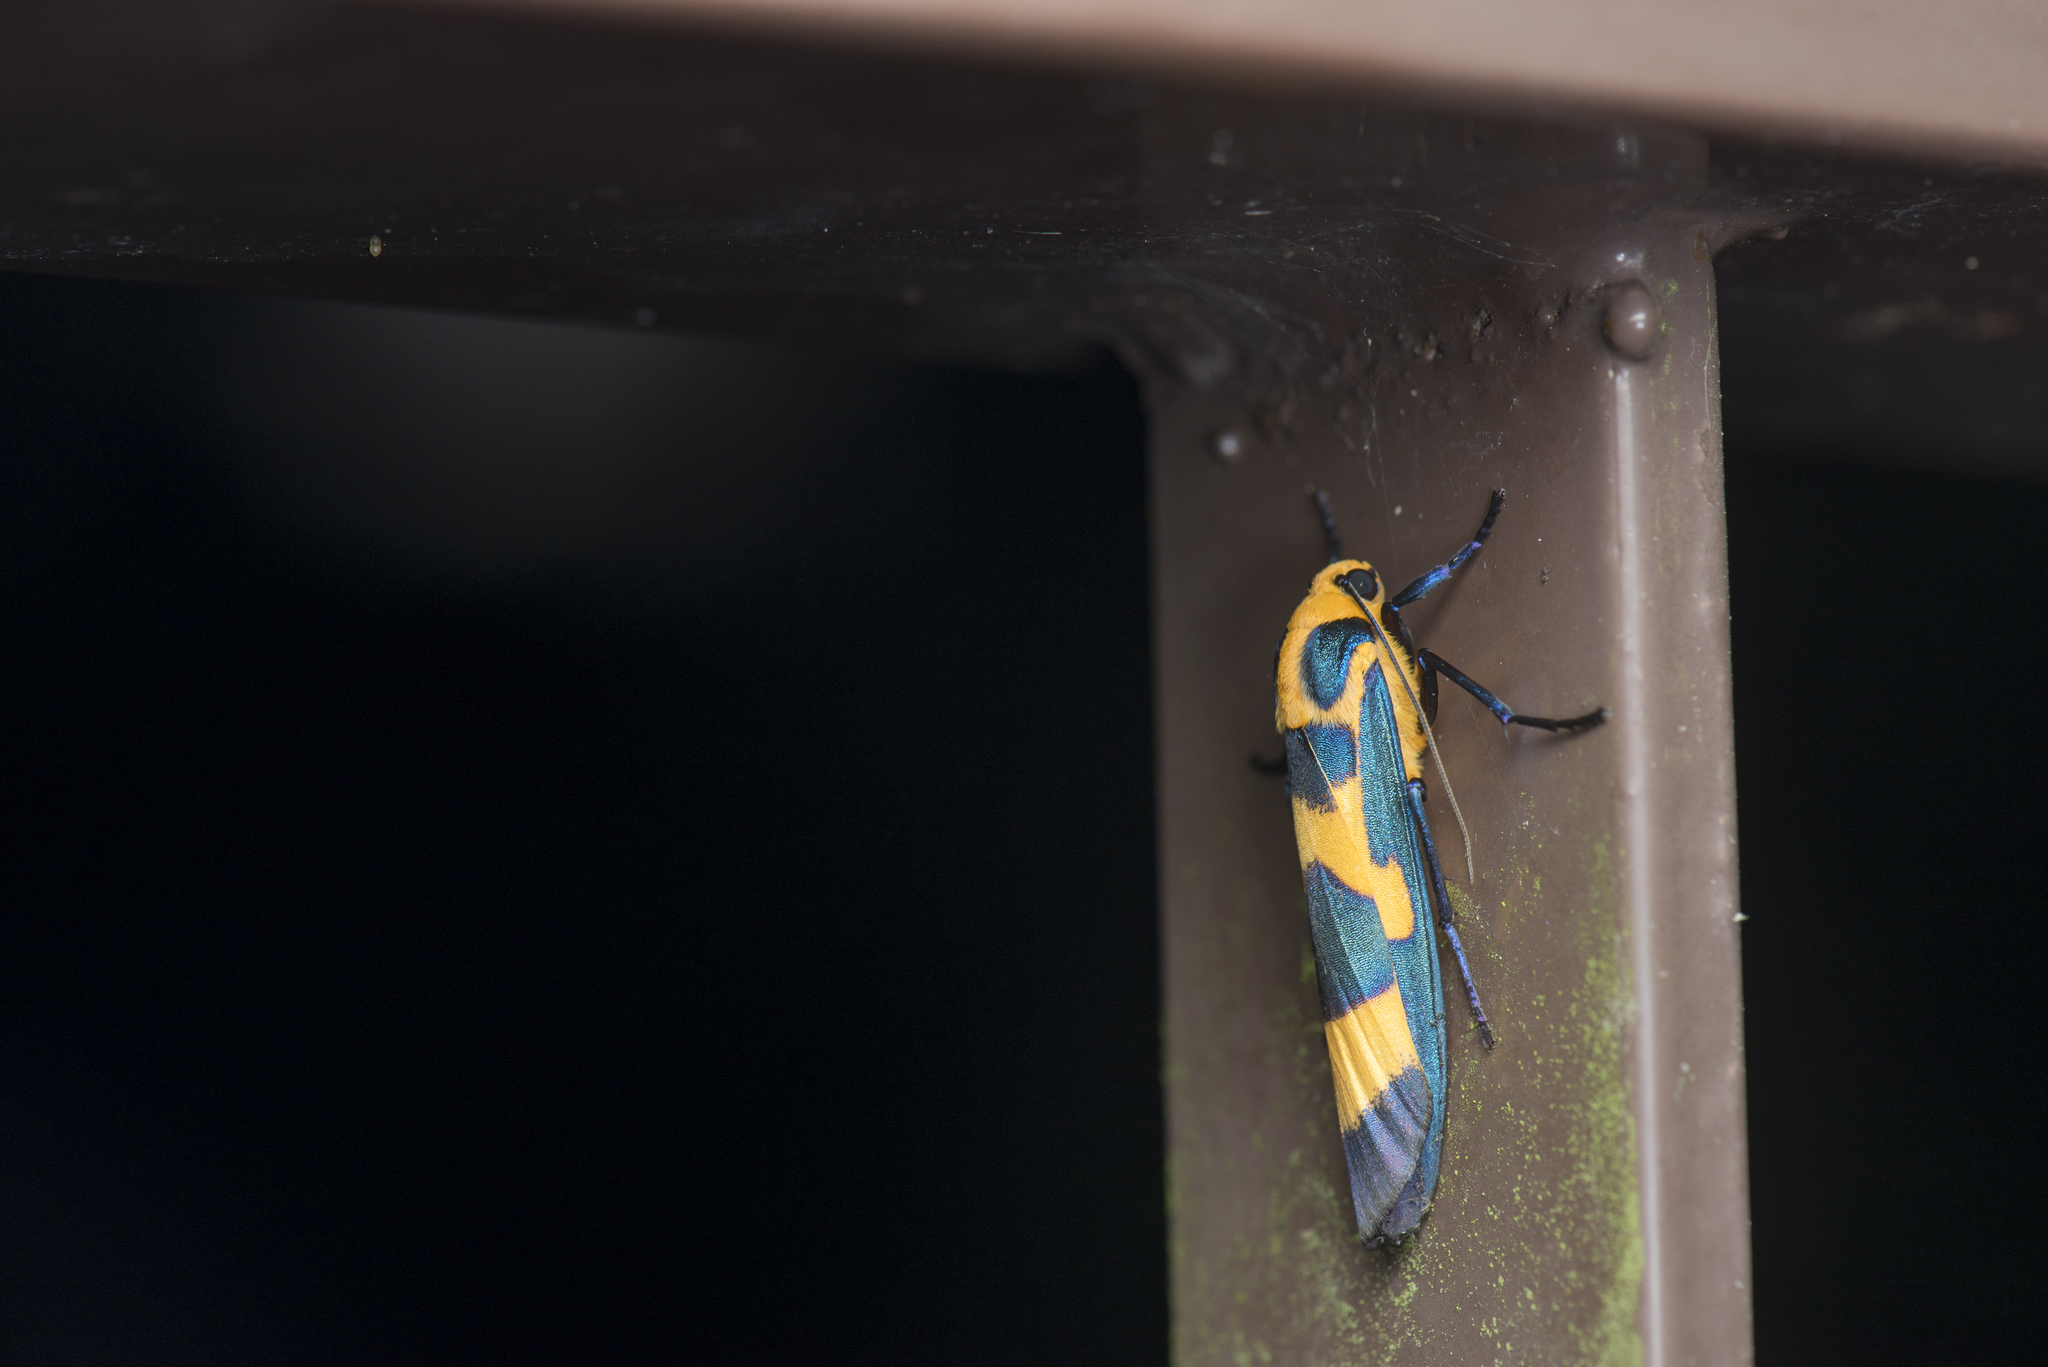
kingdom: Animalia
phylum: Arthropoda
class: Insecta
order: Lepidoptera
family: Erebidae
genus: Chrysaeglia
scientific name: Chrysaeglia magnifica
